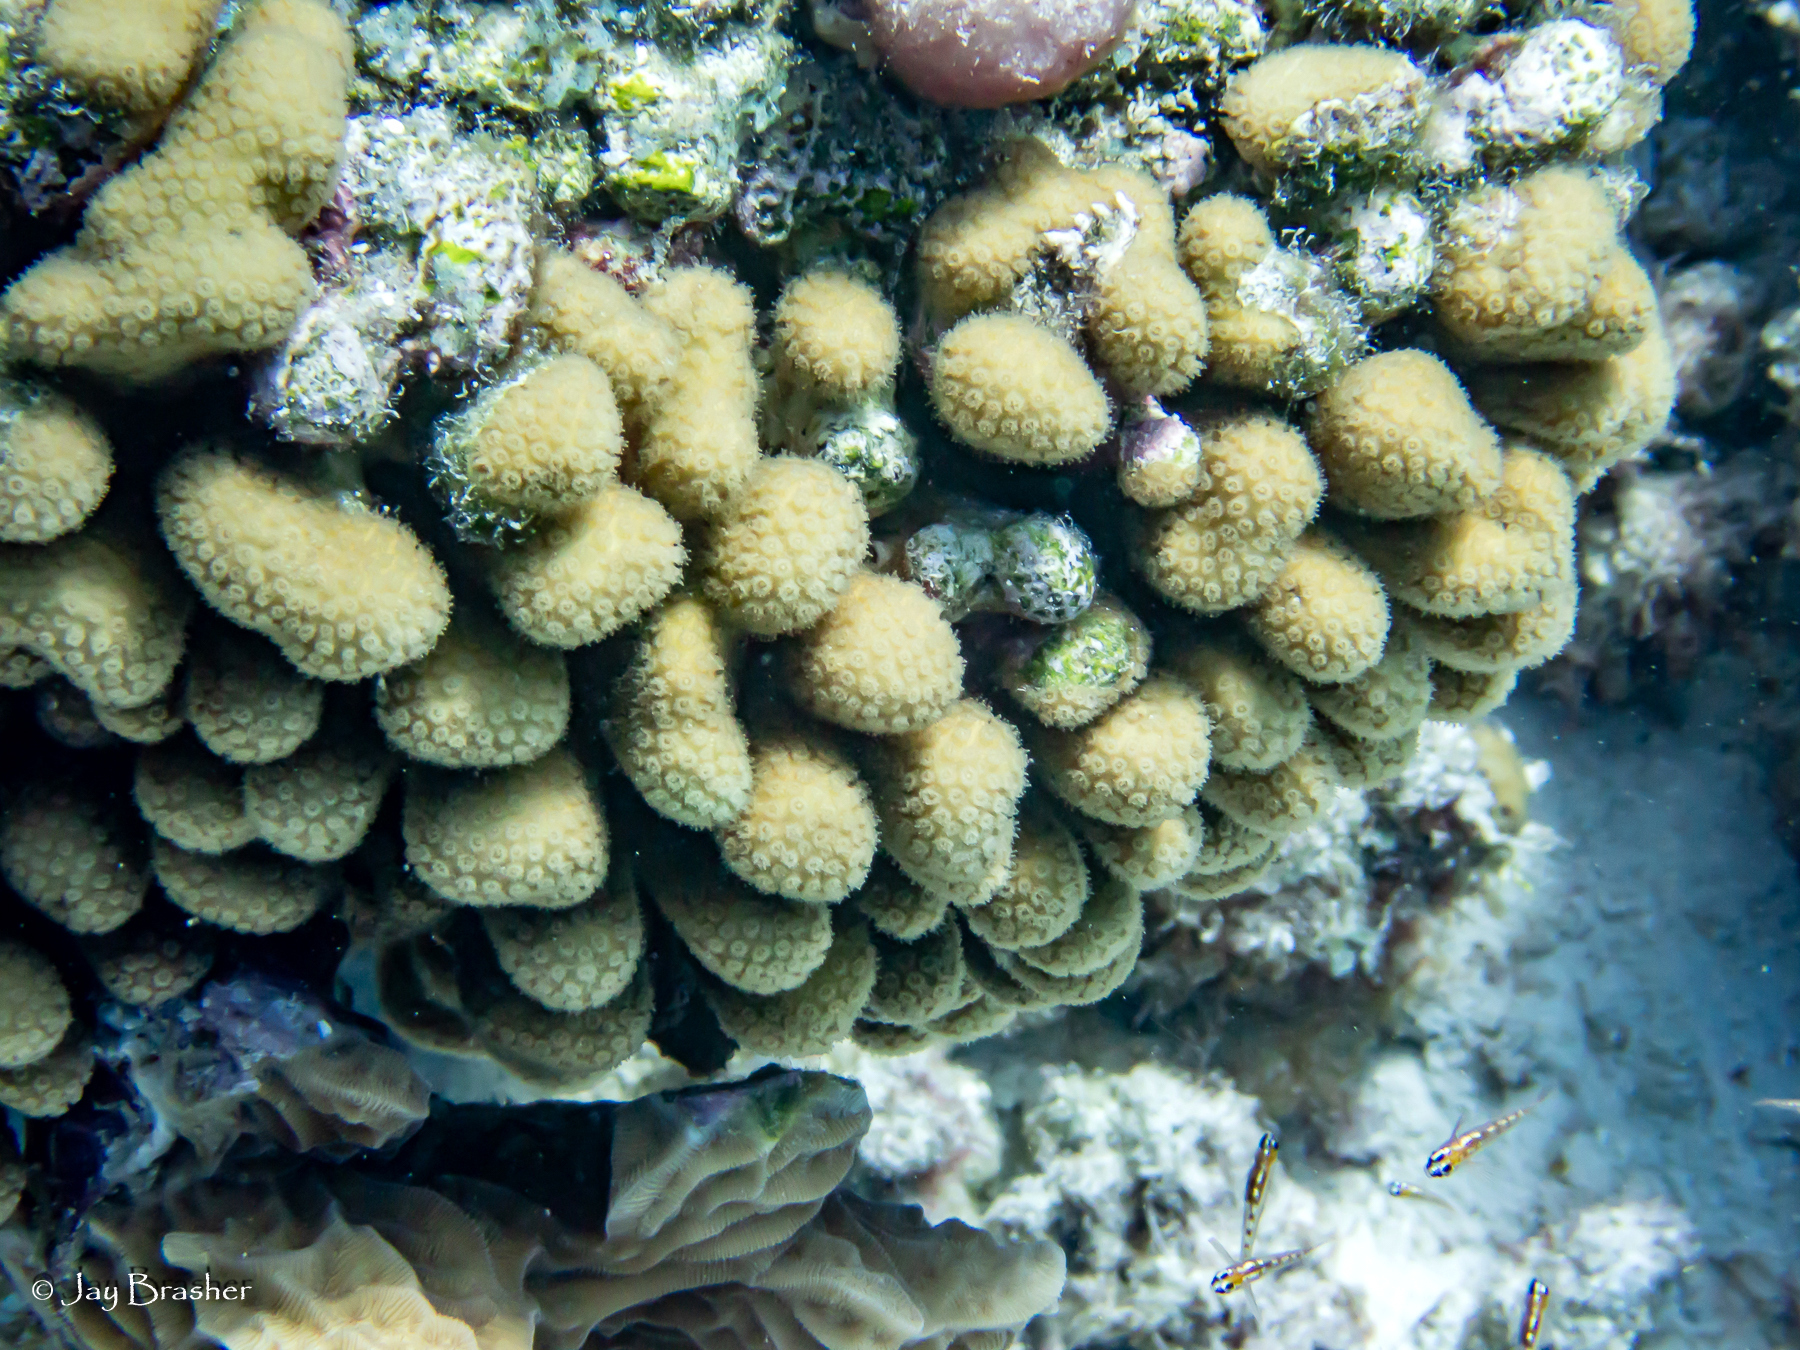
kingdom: Animalia
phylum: Cnidaria
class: Anthozoa
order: Scleractinia
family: Pocilloporidae
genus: Madracis
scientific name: Madracis decactis
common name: Ten-ray star coral
